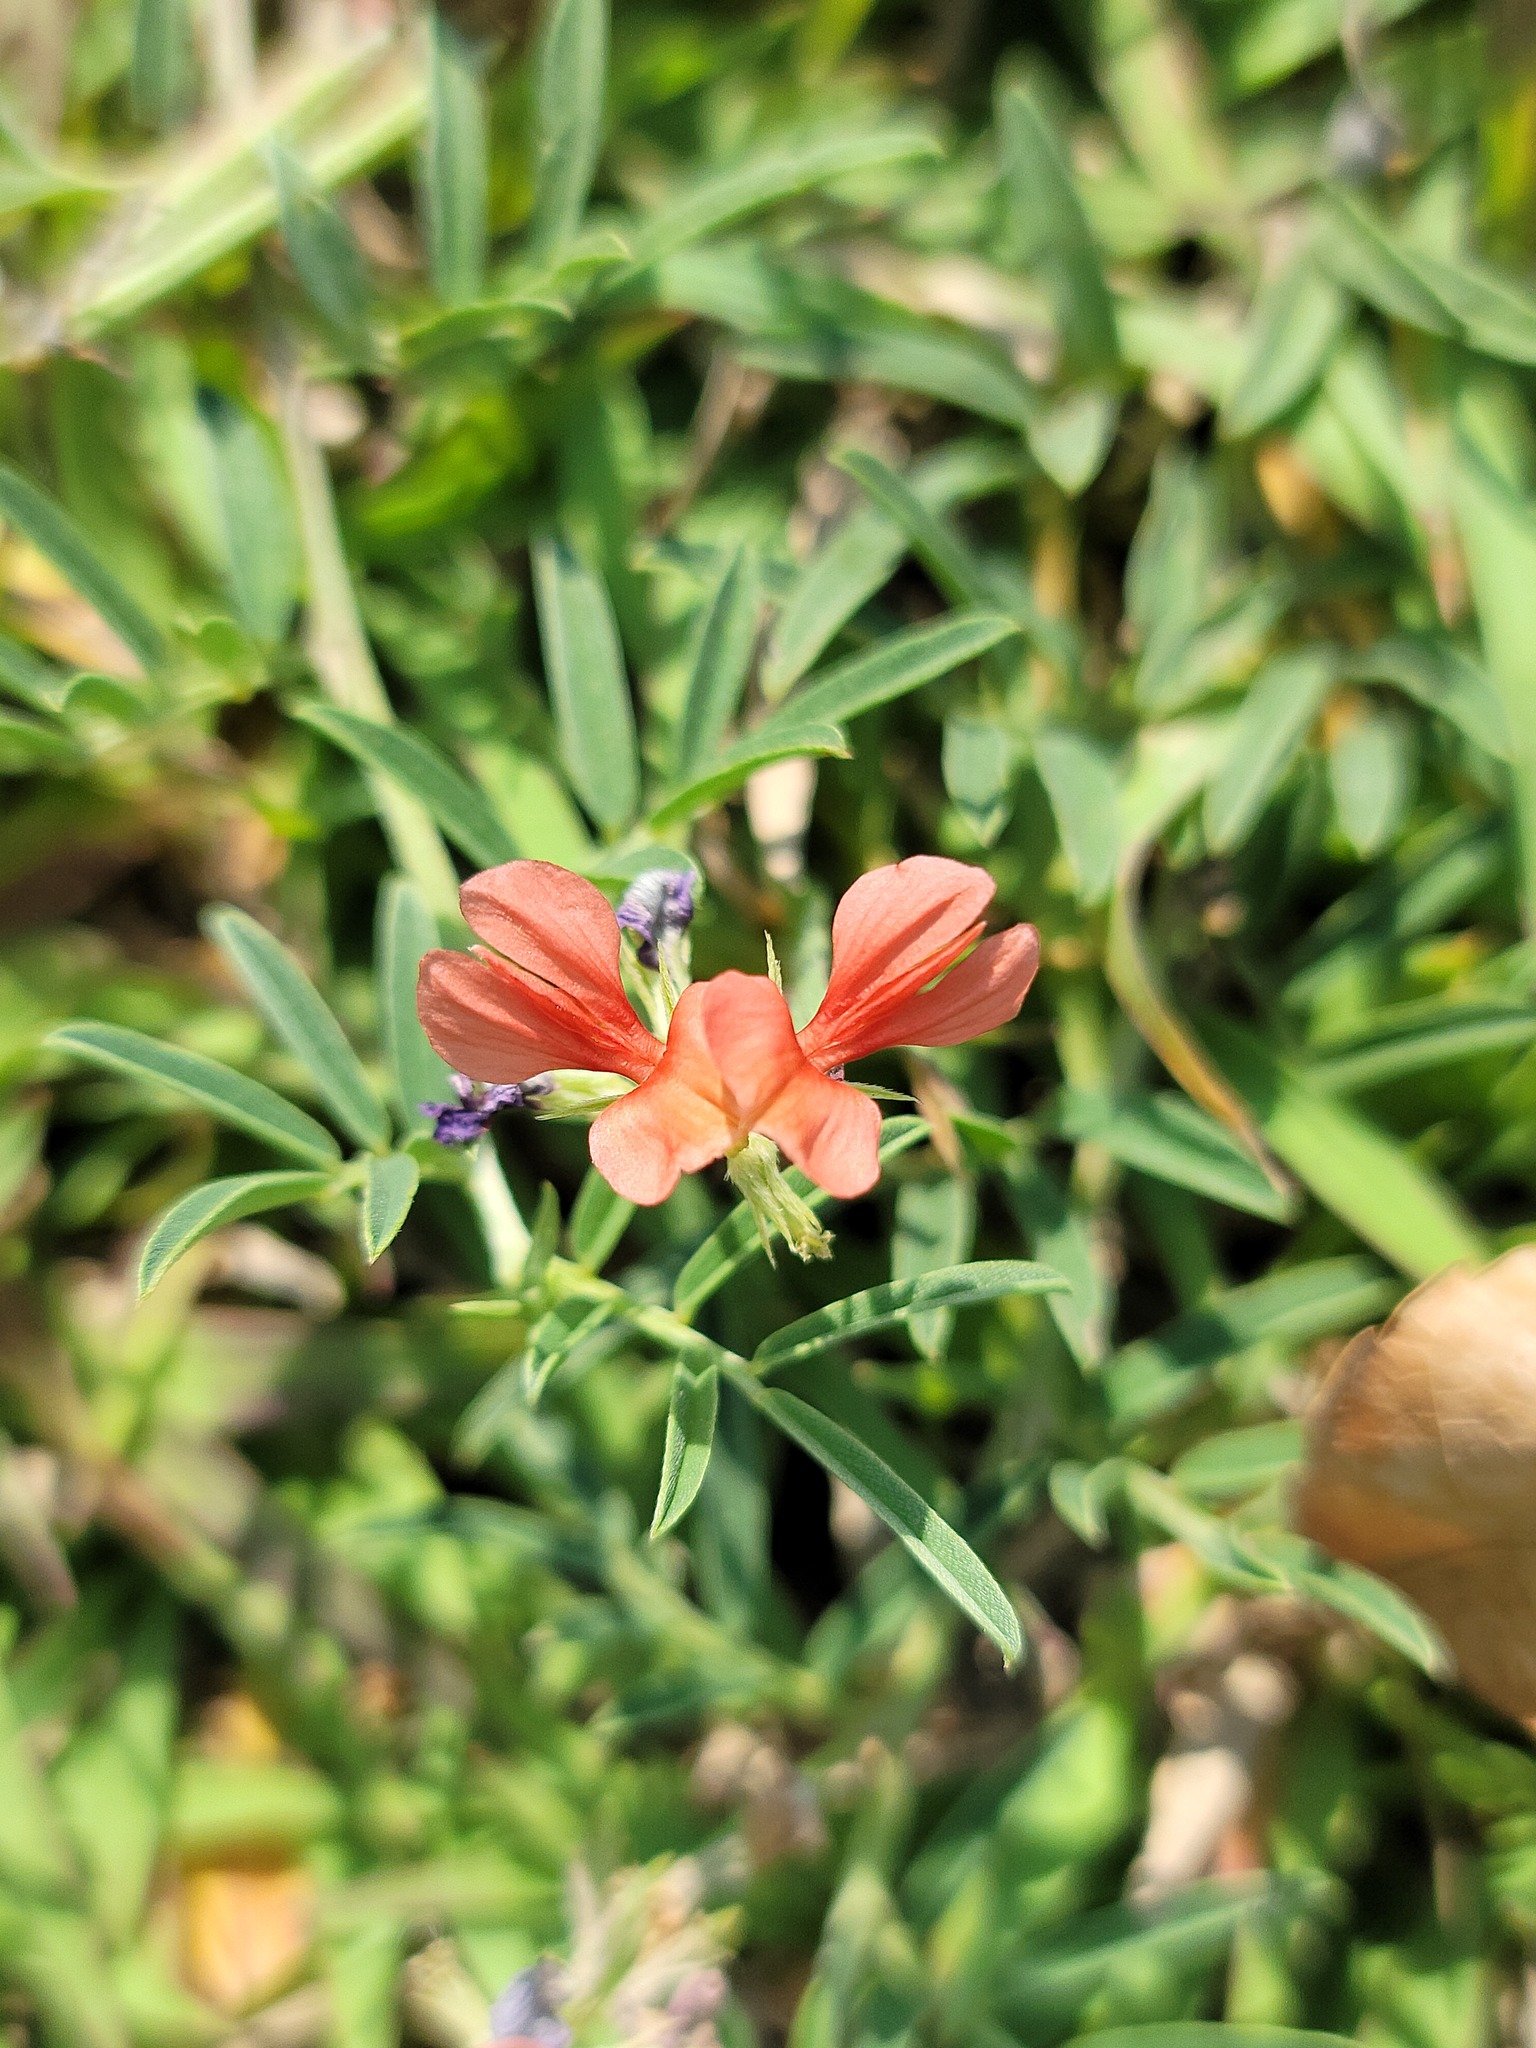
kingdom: Plantae
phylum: Tracheophyta
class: Magnoliopsida
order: Fabales
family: Fabaceae
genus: Indigofera
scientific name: Indigofera miniata
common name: Coast indigo
